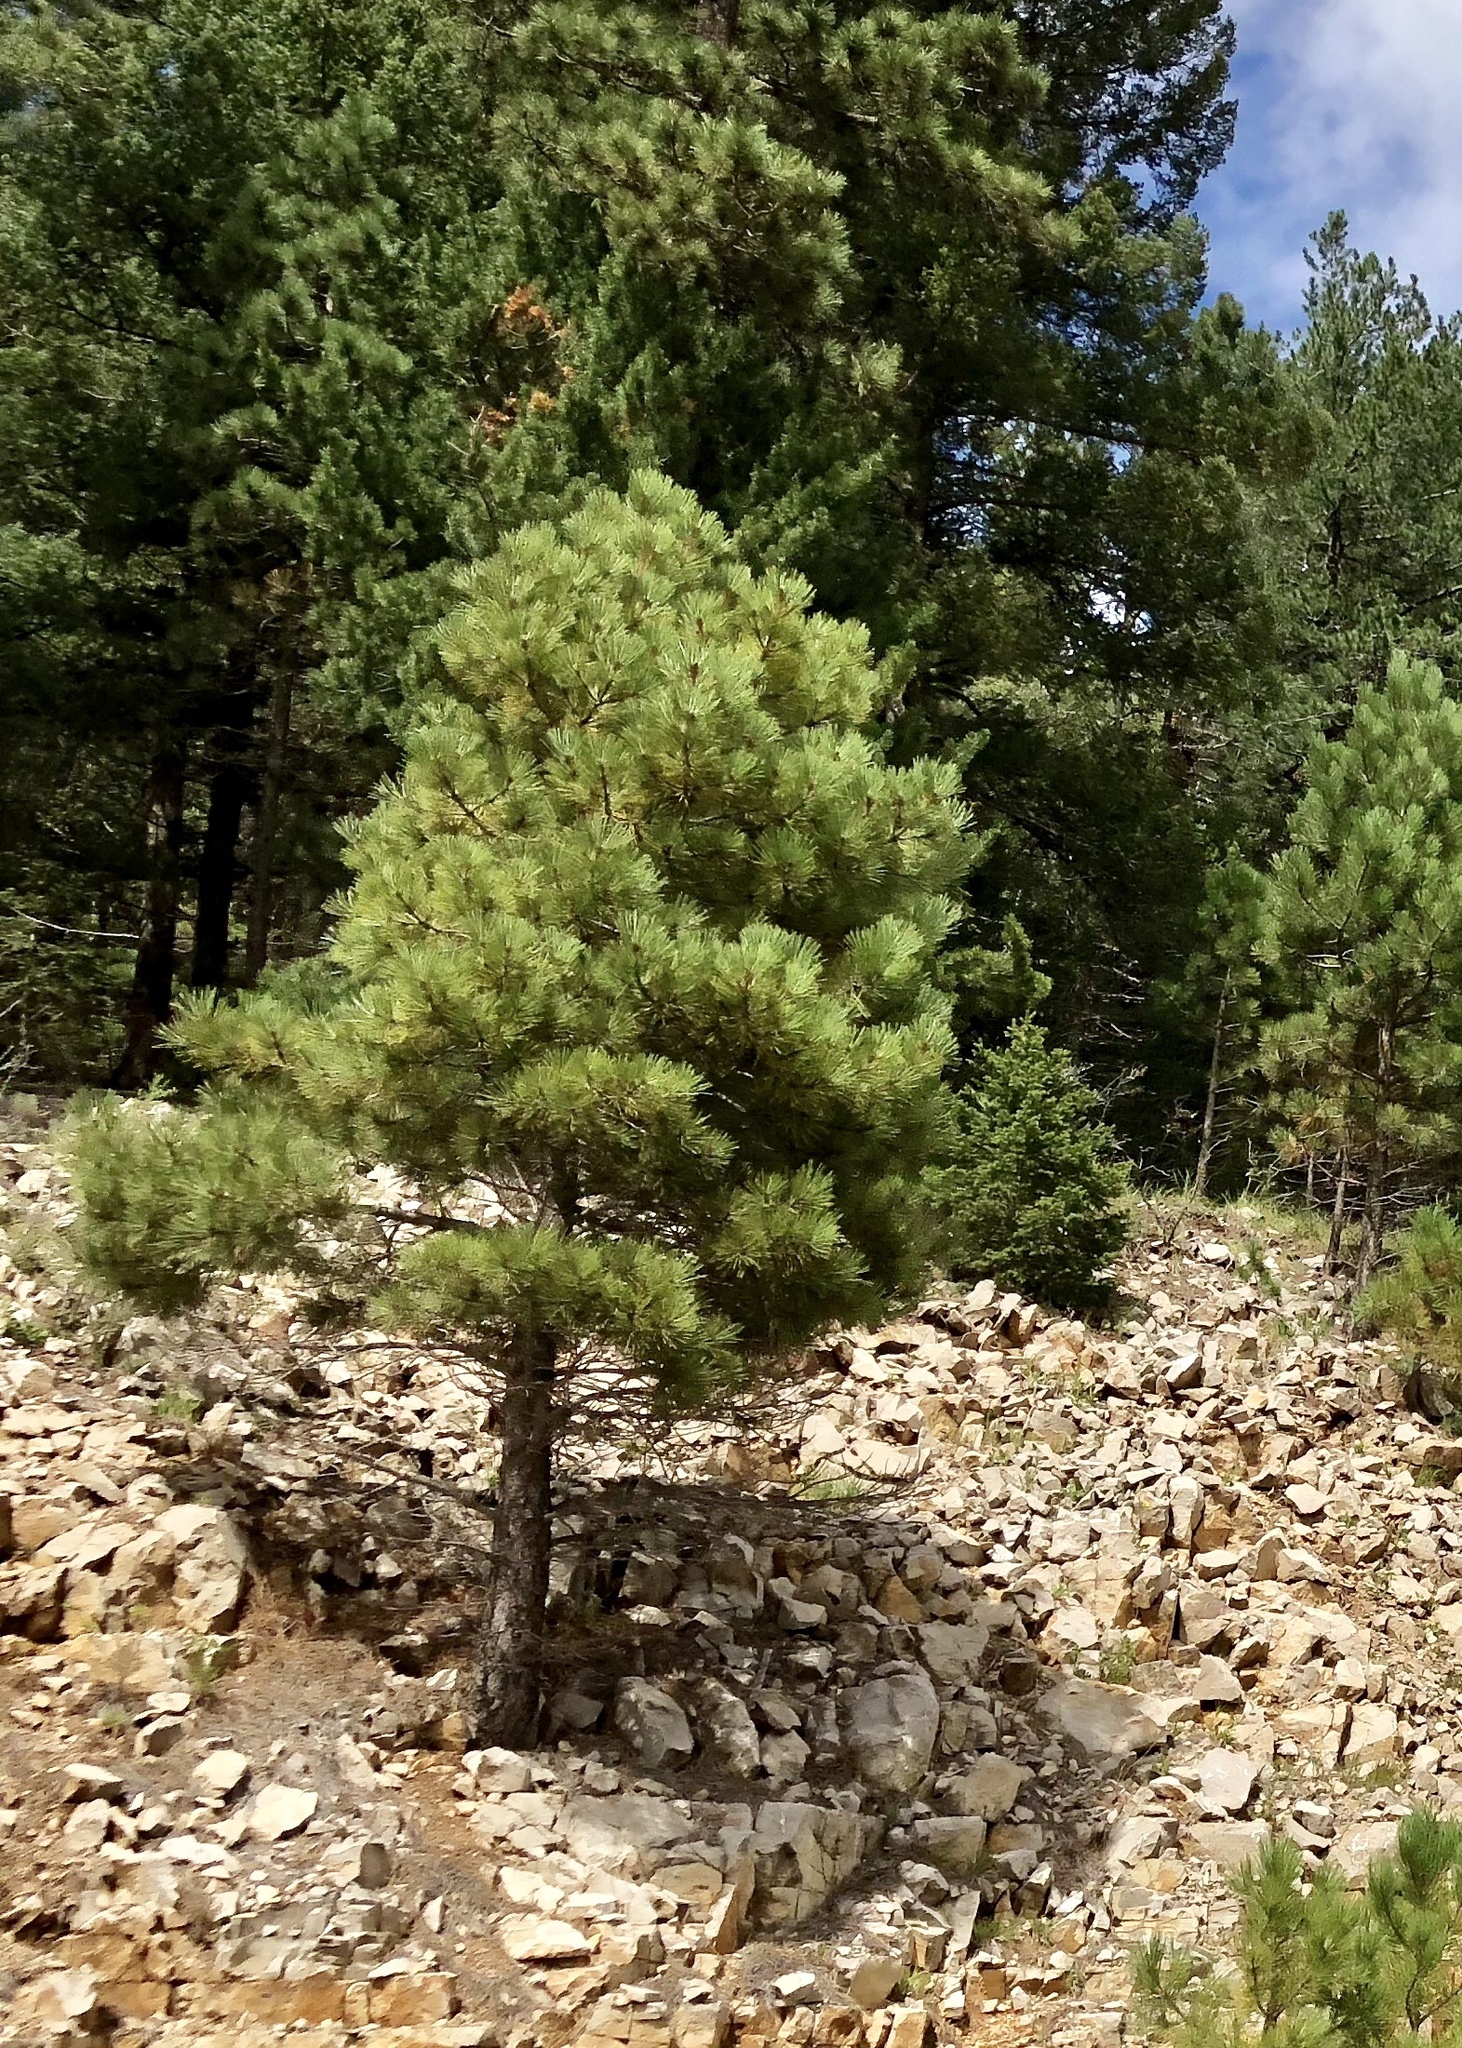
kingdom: Plantae
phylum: Tracheophyta
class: Pinopsida
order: Pinales
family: Pinaceae
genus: Pinus
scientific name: Pinus ponderosa
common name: Western yellow-pine
